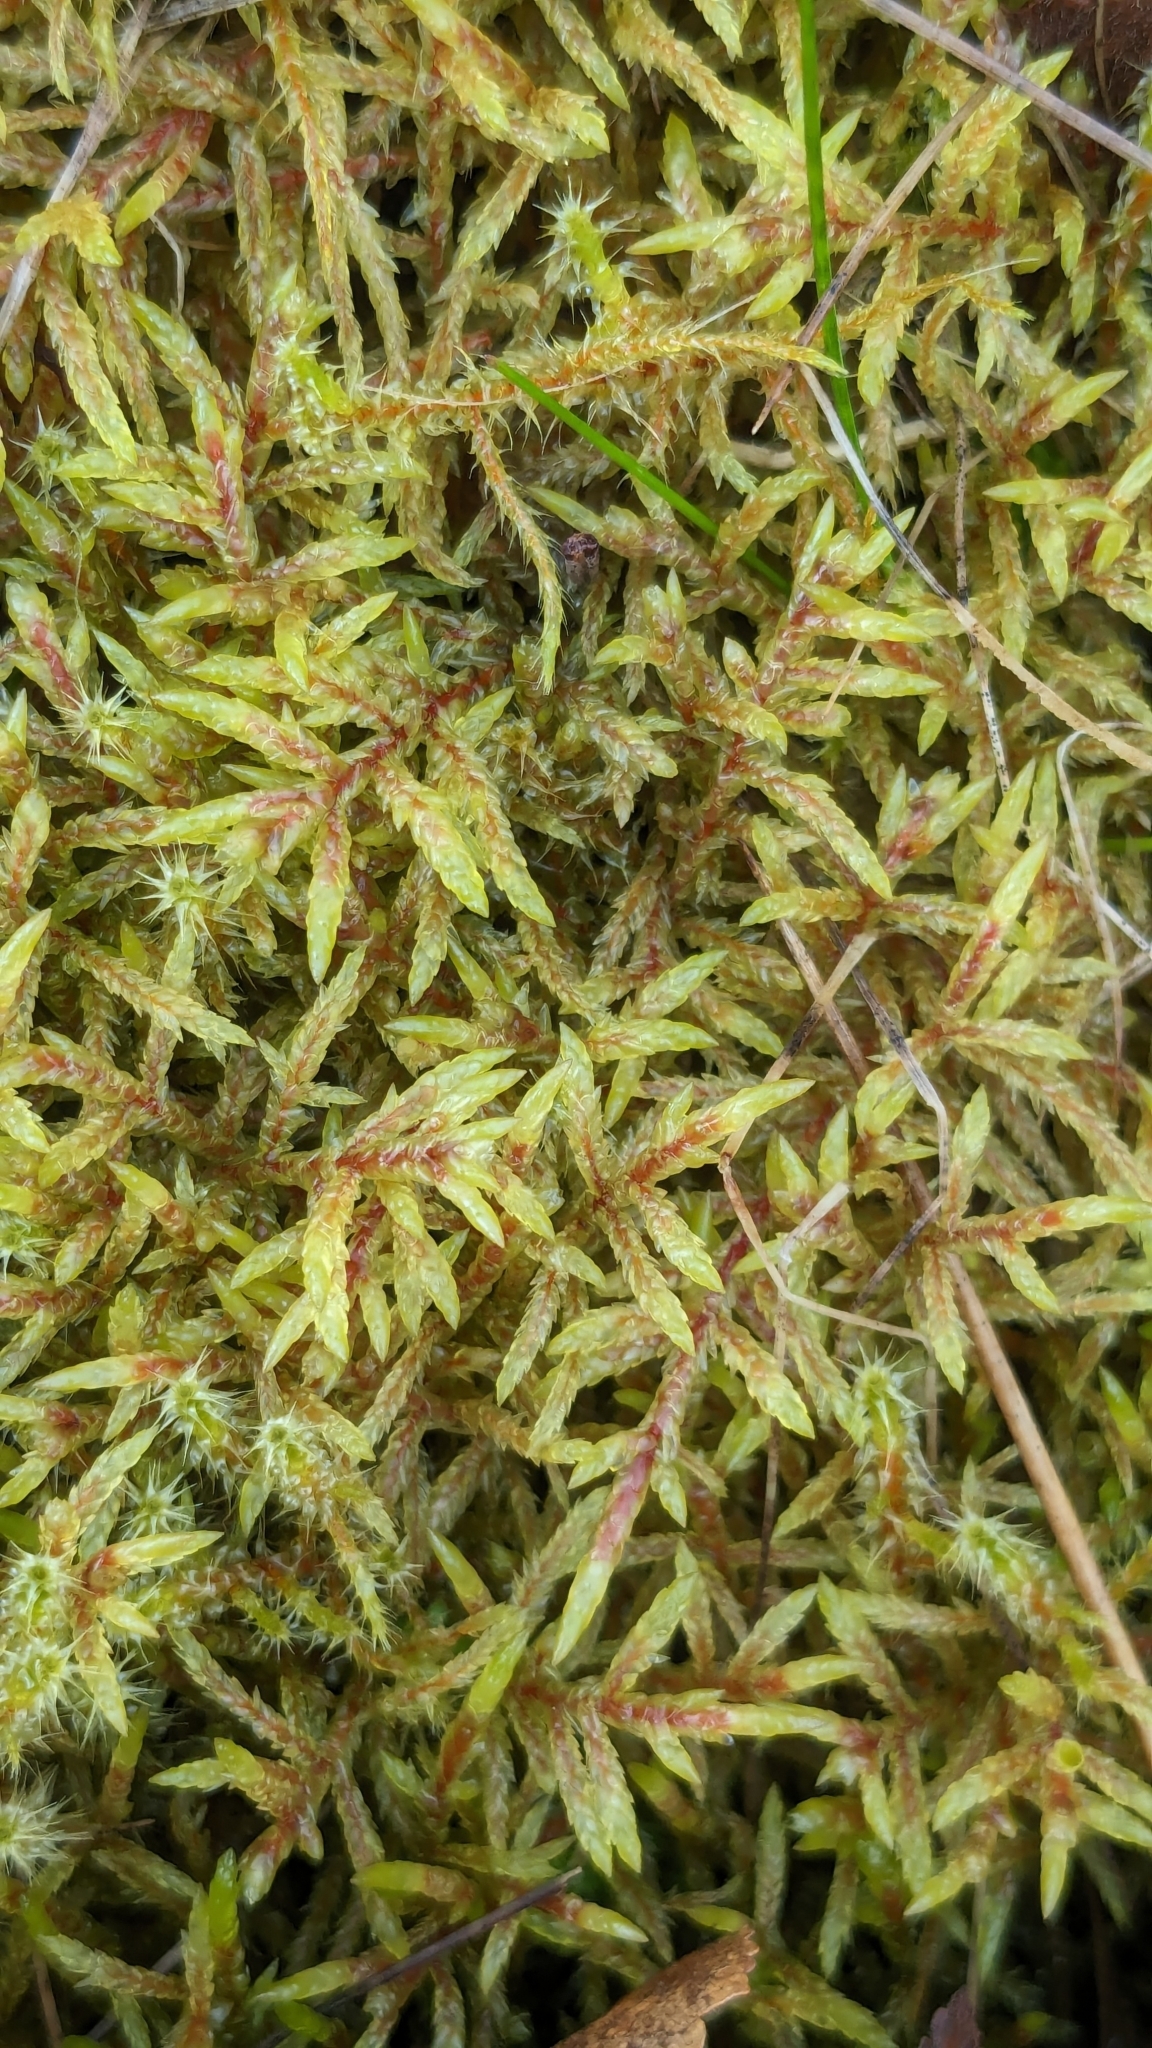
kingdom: Plantae
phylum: Bryophyta
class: Bryopsida
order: Hypnales
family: Hylocomiaceae
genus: Pleurozium
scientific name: Pleurozium schreberi
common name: Red-stemmed feather moss
